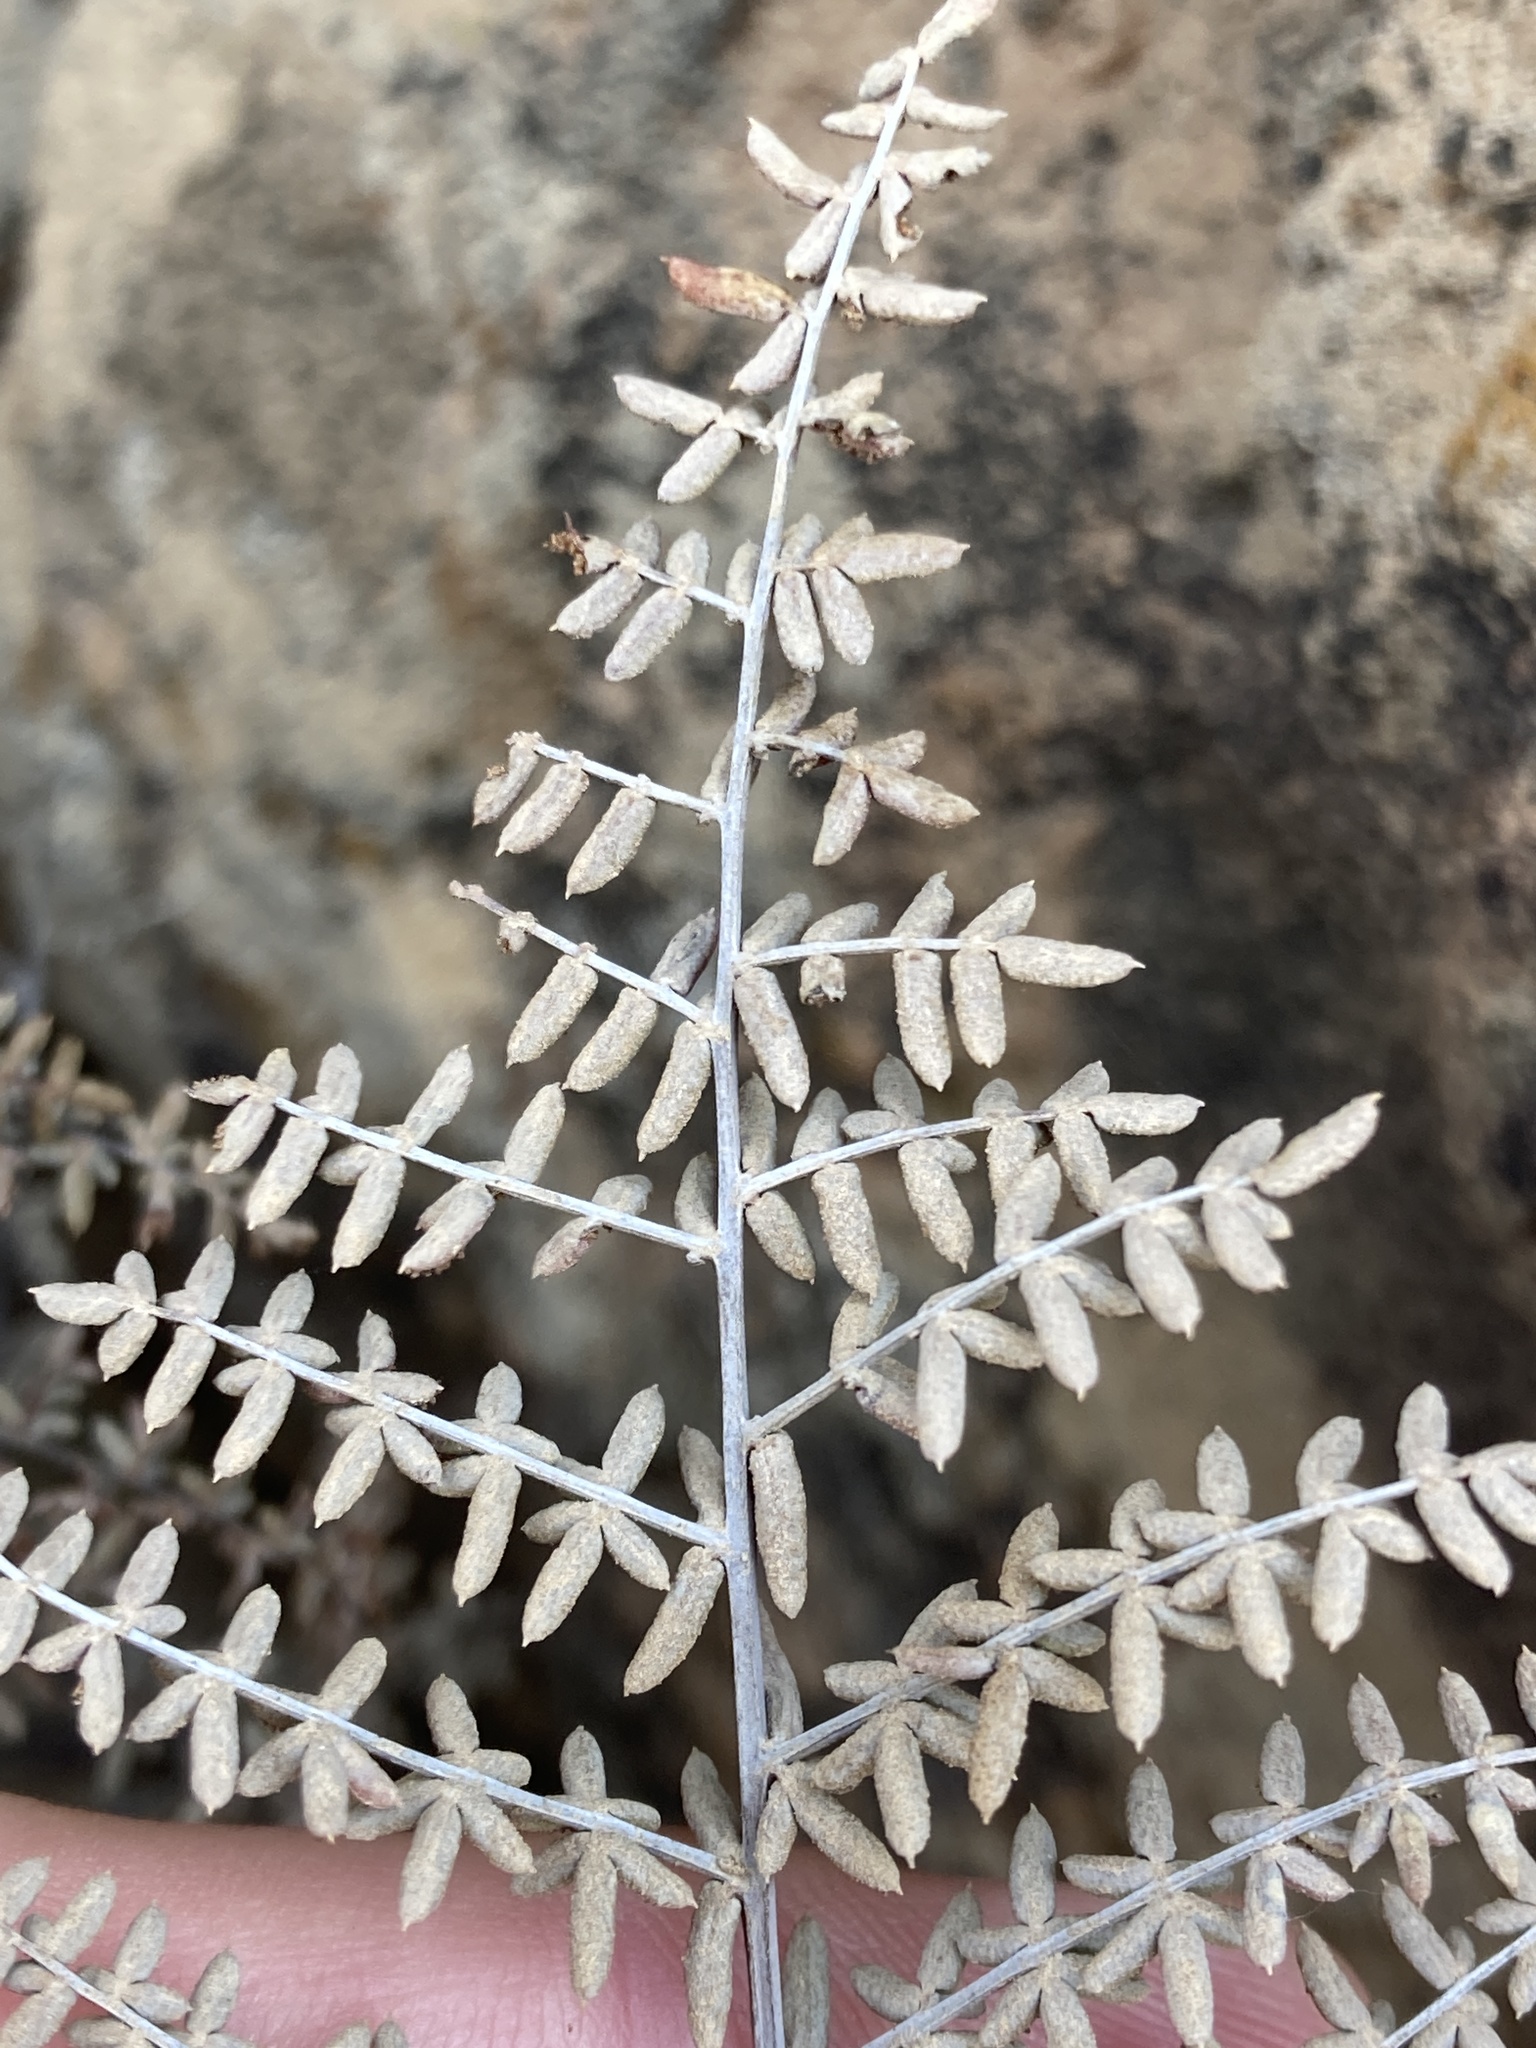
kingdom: Plantae
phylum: Tracheophyta
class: Polypodiopsida
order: Polypodiales
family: Pteridaceae
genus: Pellaea
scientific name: Pellaea mucronata
